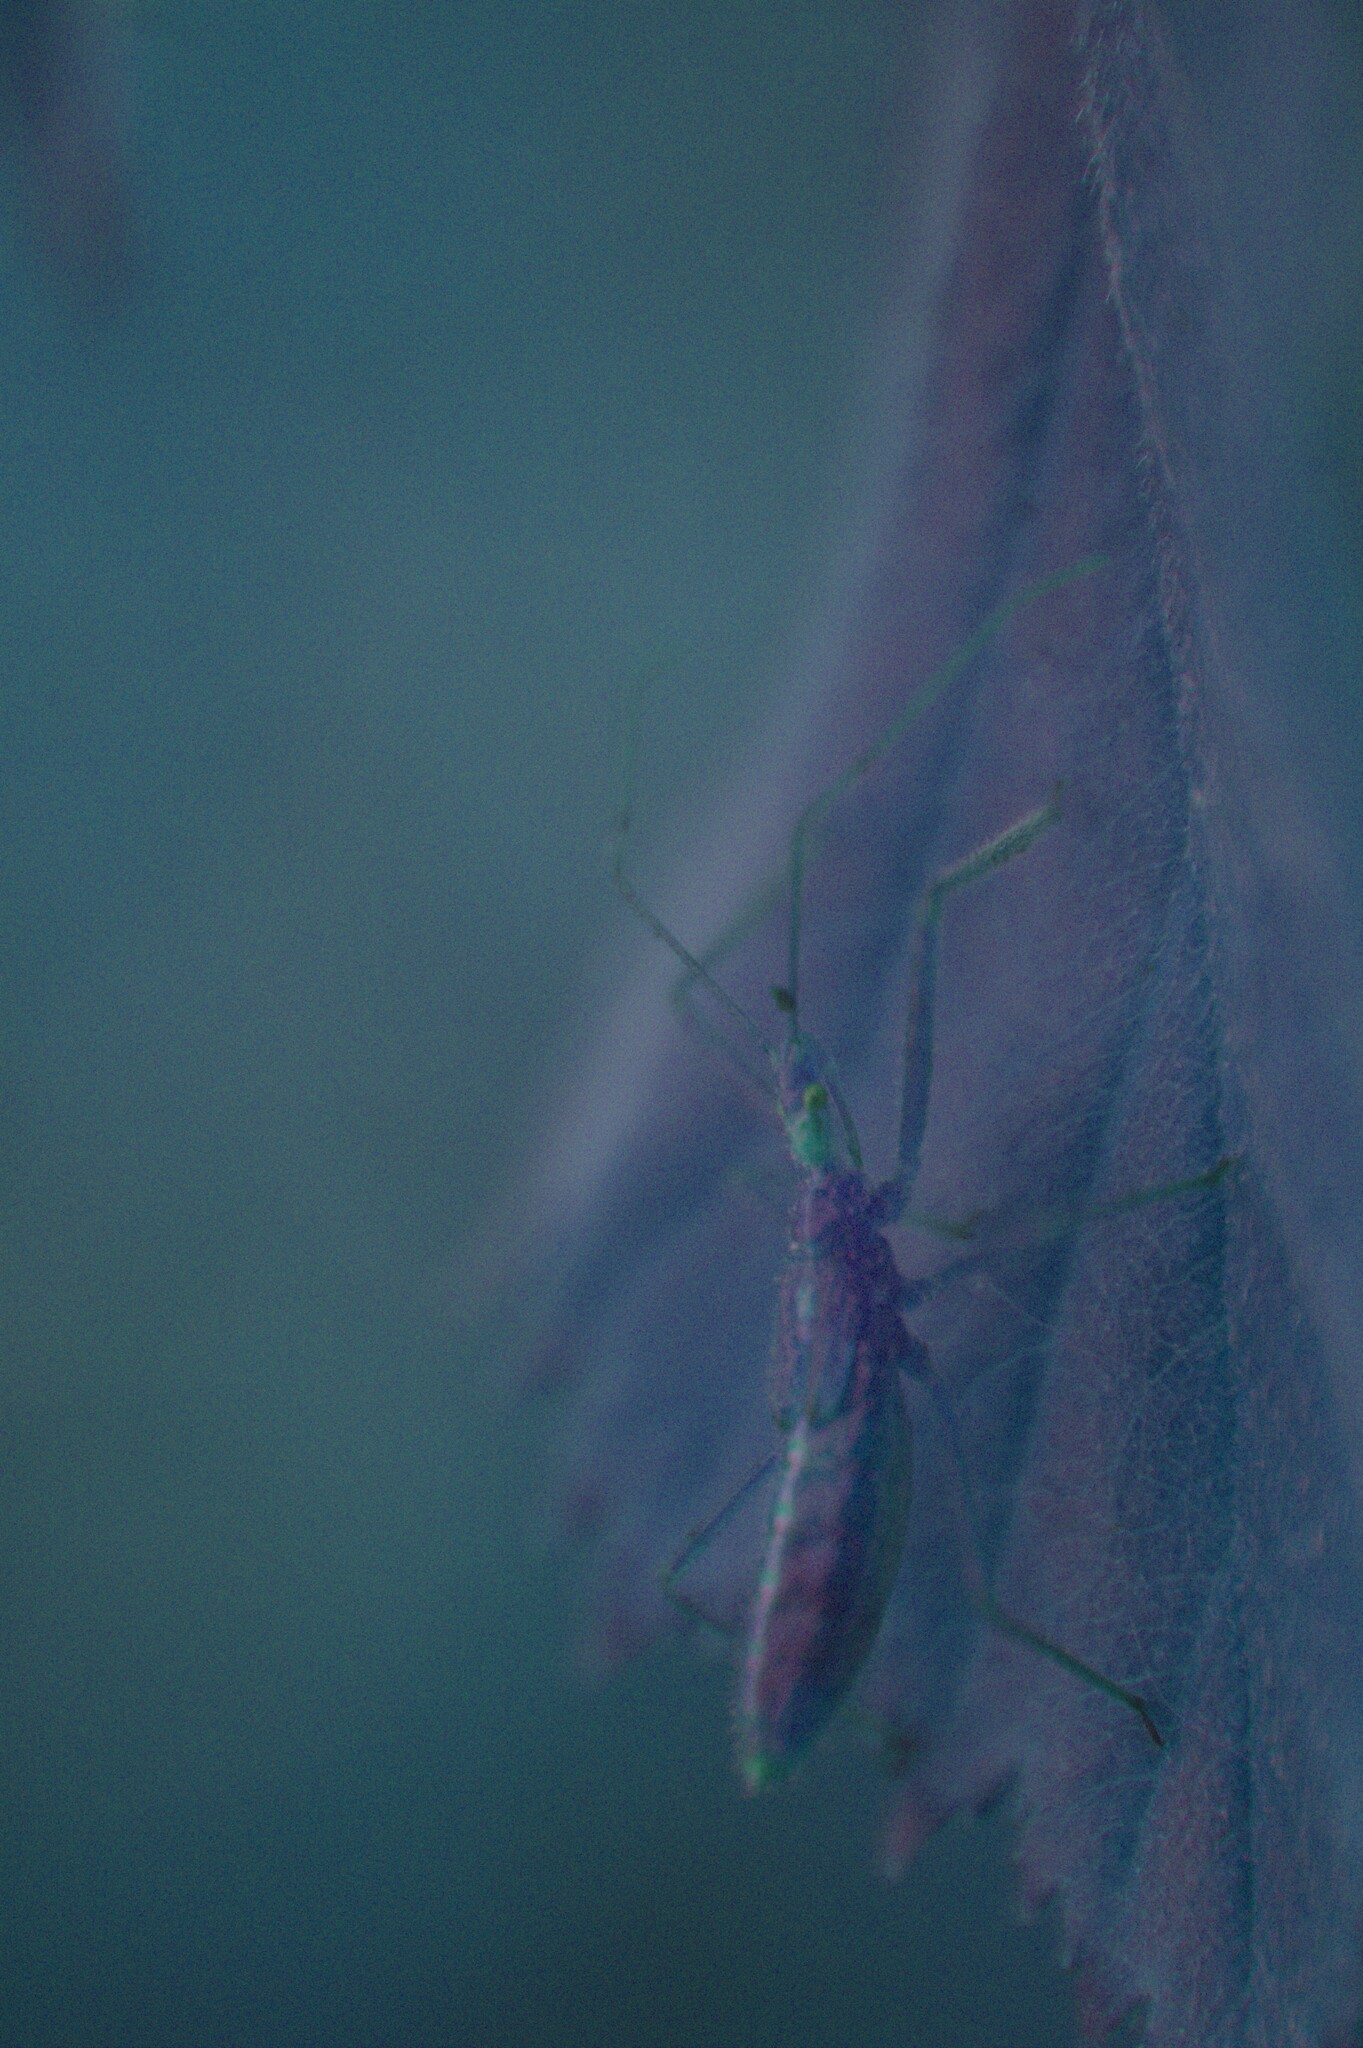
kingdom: Animalia
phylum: Arthropoda
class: Insecta
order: Hemiptera
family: Reduviidae
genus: Zelus
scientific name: Zelus luridus
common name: Pale green assassin bug
